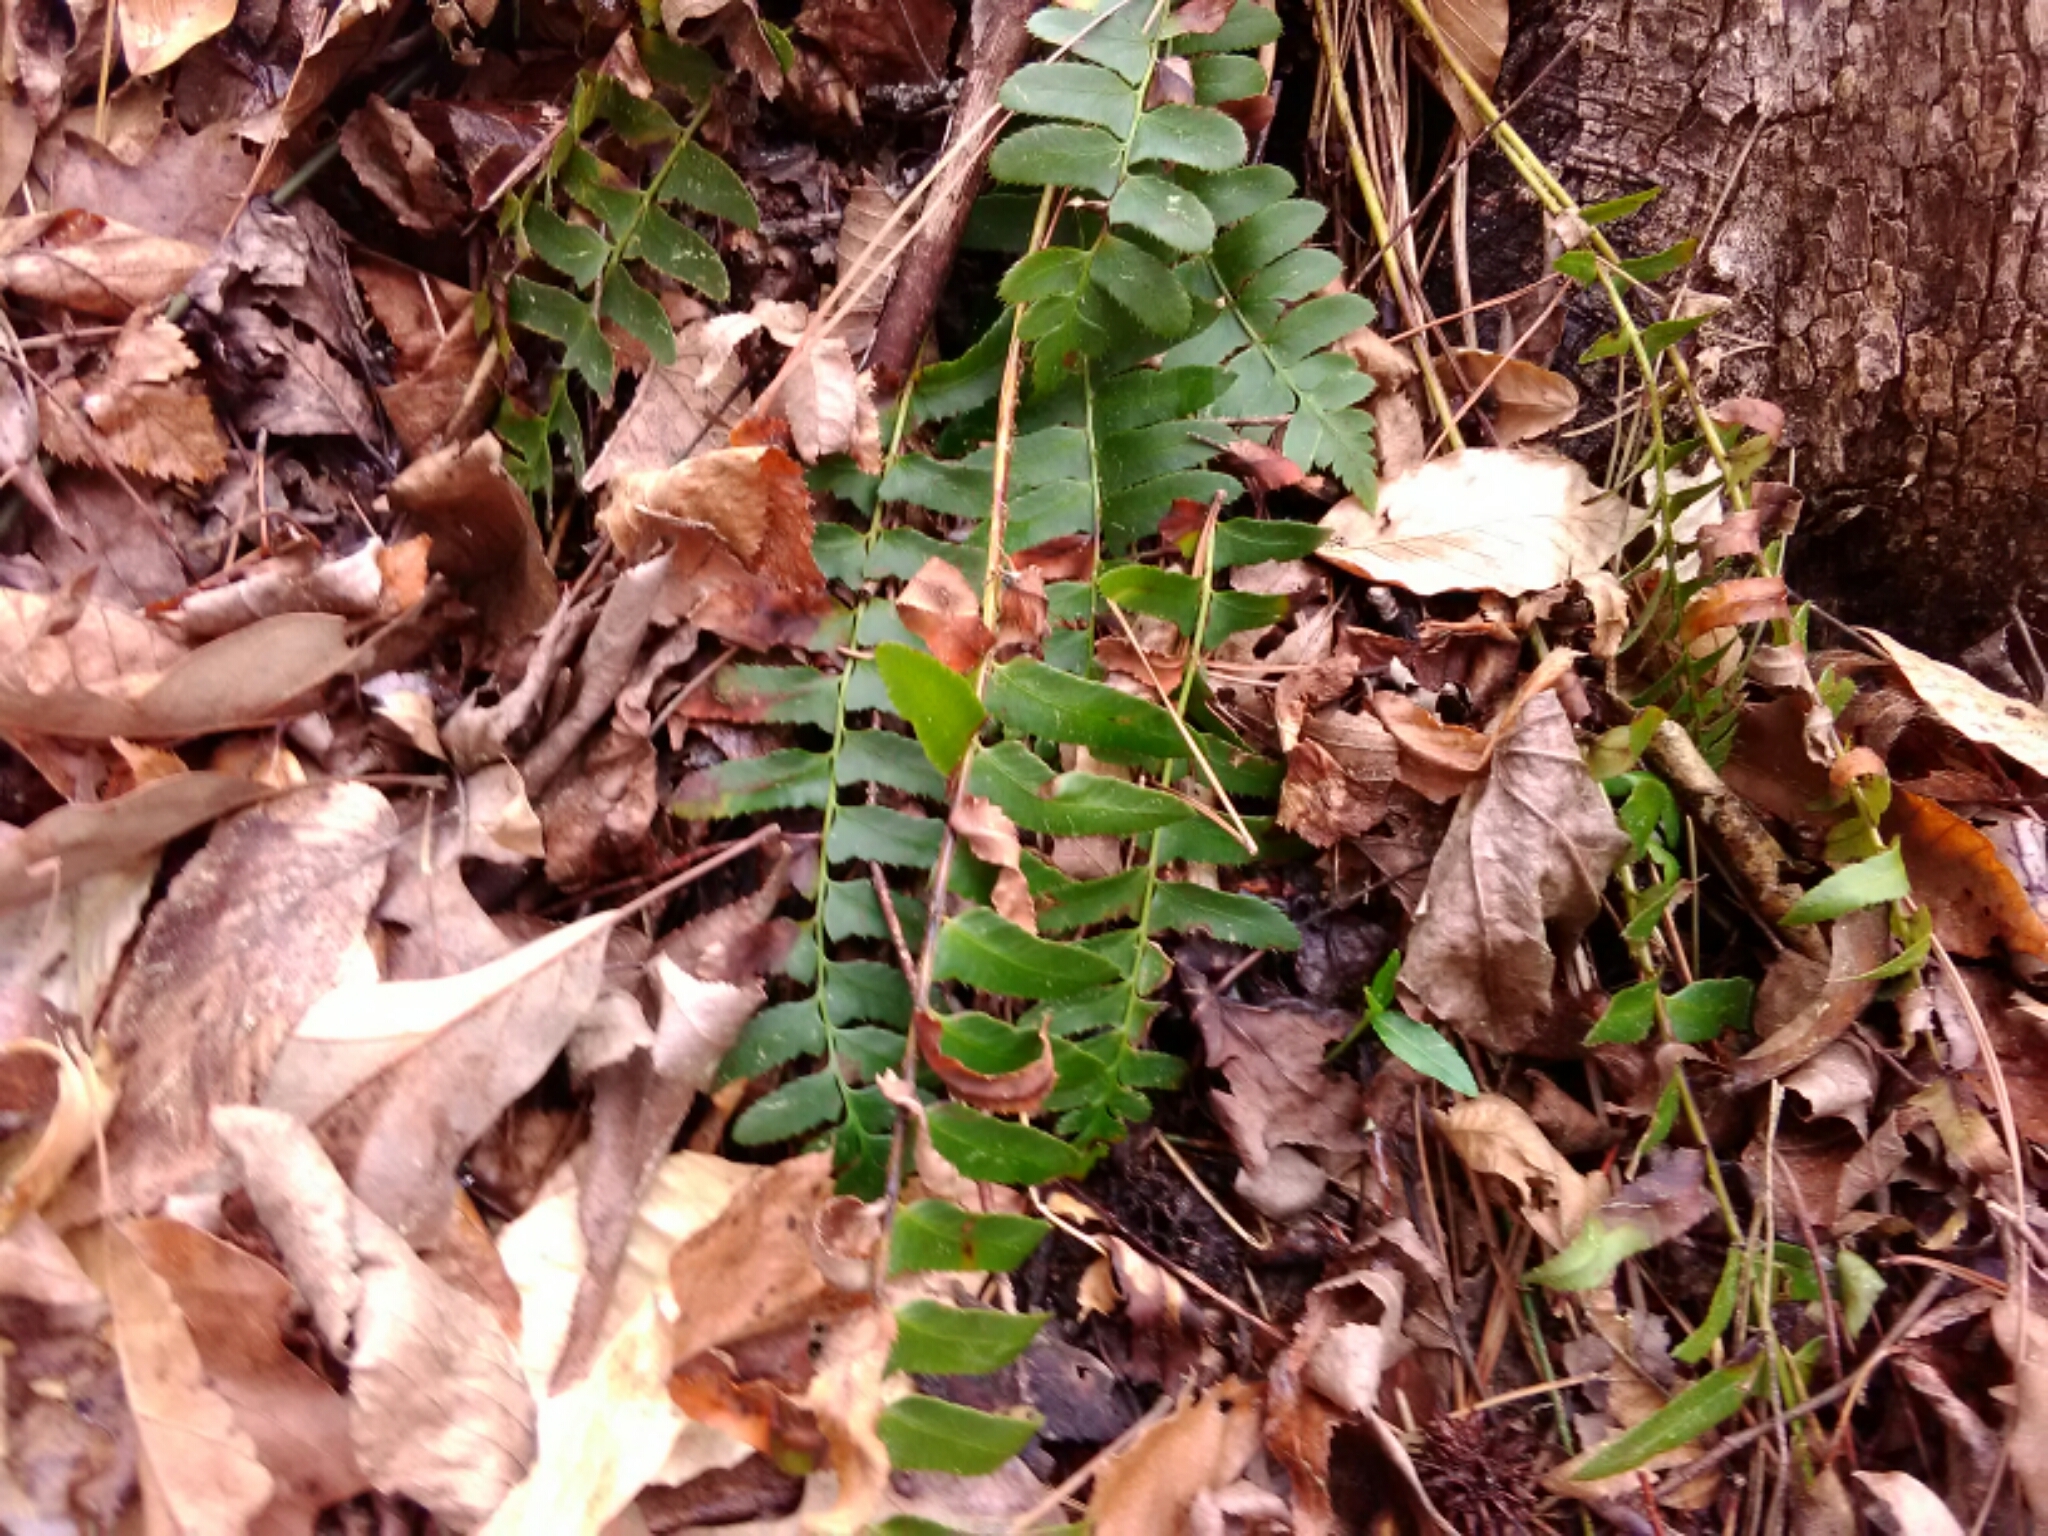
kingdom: Plantae
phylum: Tracheophyta
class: Polypodiopsida
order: Polypodiales
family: Dryopteridaceae
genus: Polystichum
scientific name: Polystichum acrostichoides
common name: Christmas fern
